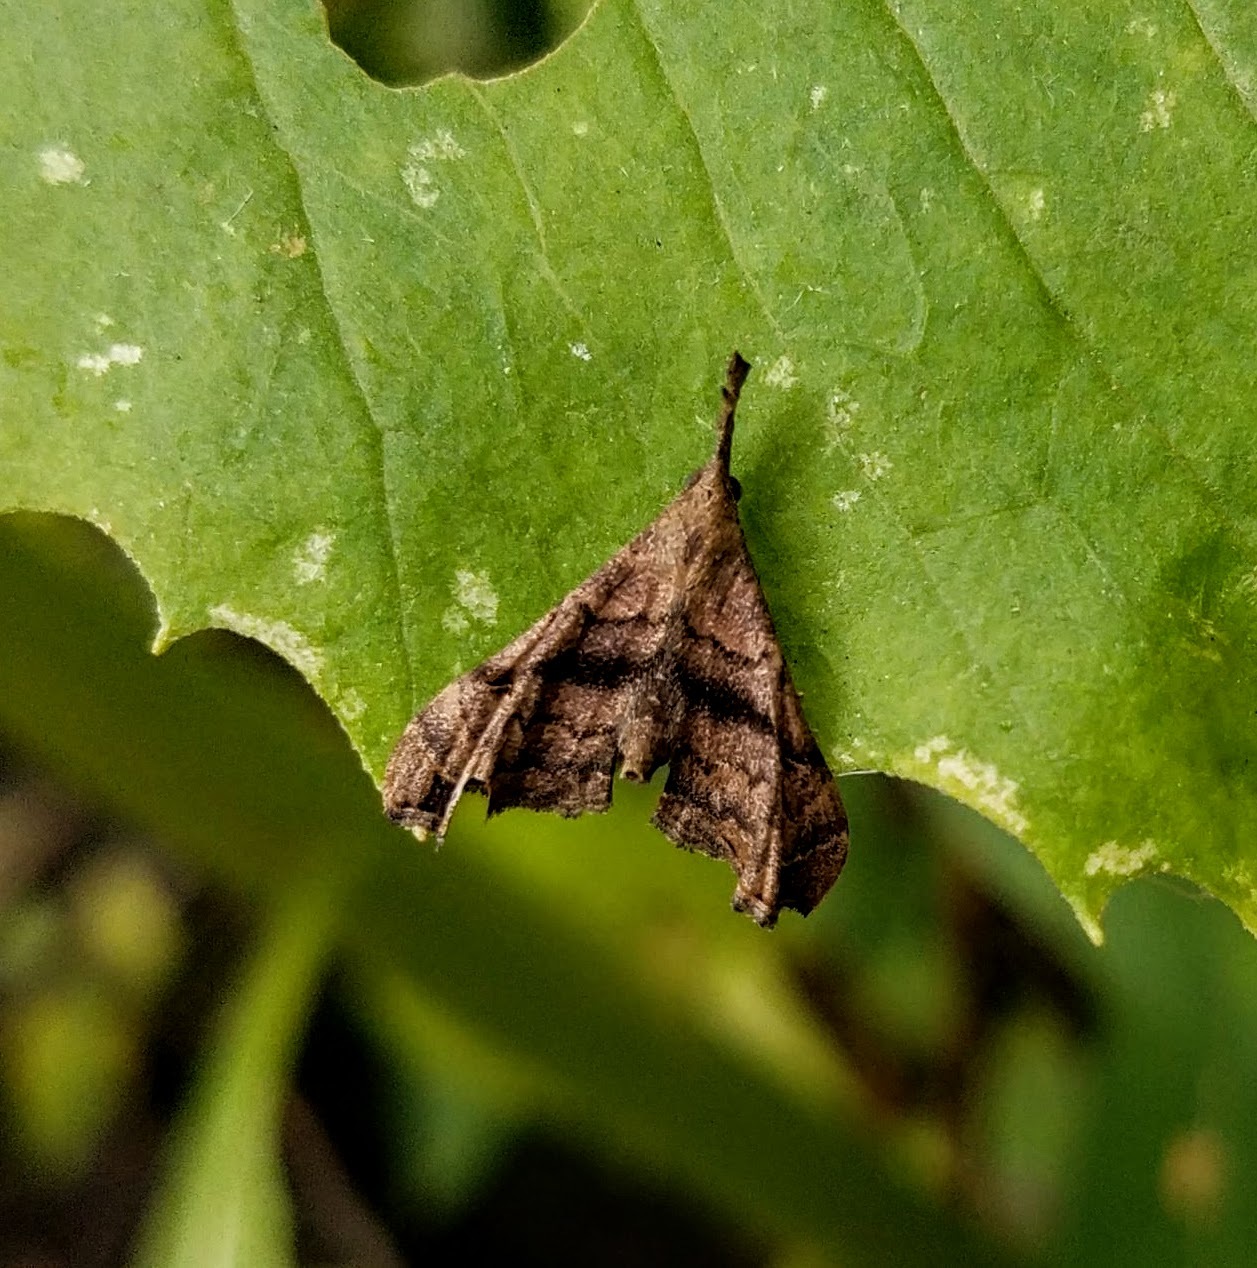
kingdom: Animalia
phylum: Arthropoda
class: Insecta
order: Lepidoptera
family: Erebidae
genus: Palthis
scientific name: Palthis asopialis
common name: Faint-spotted palthis moth
